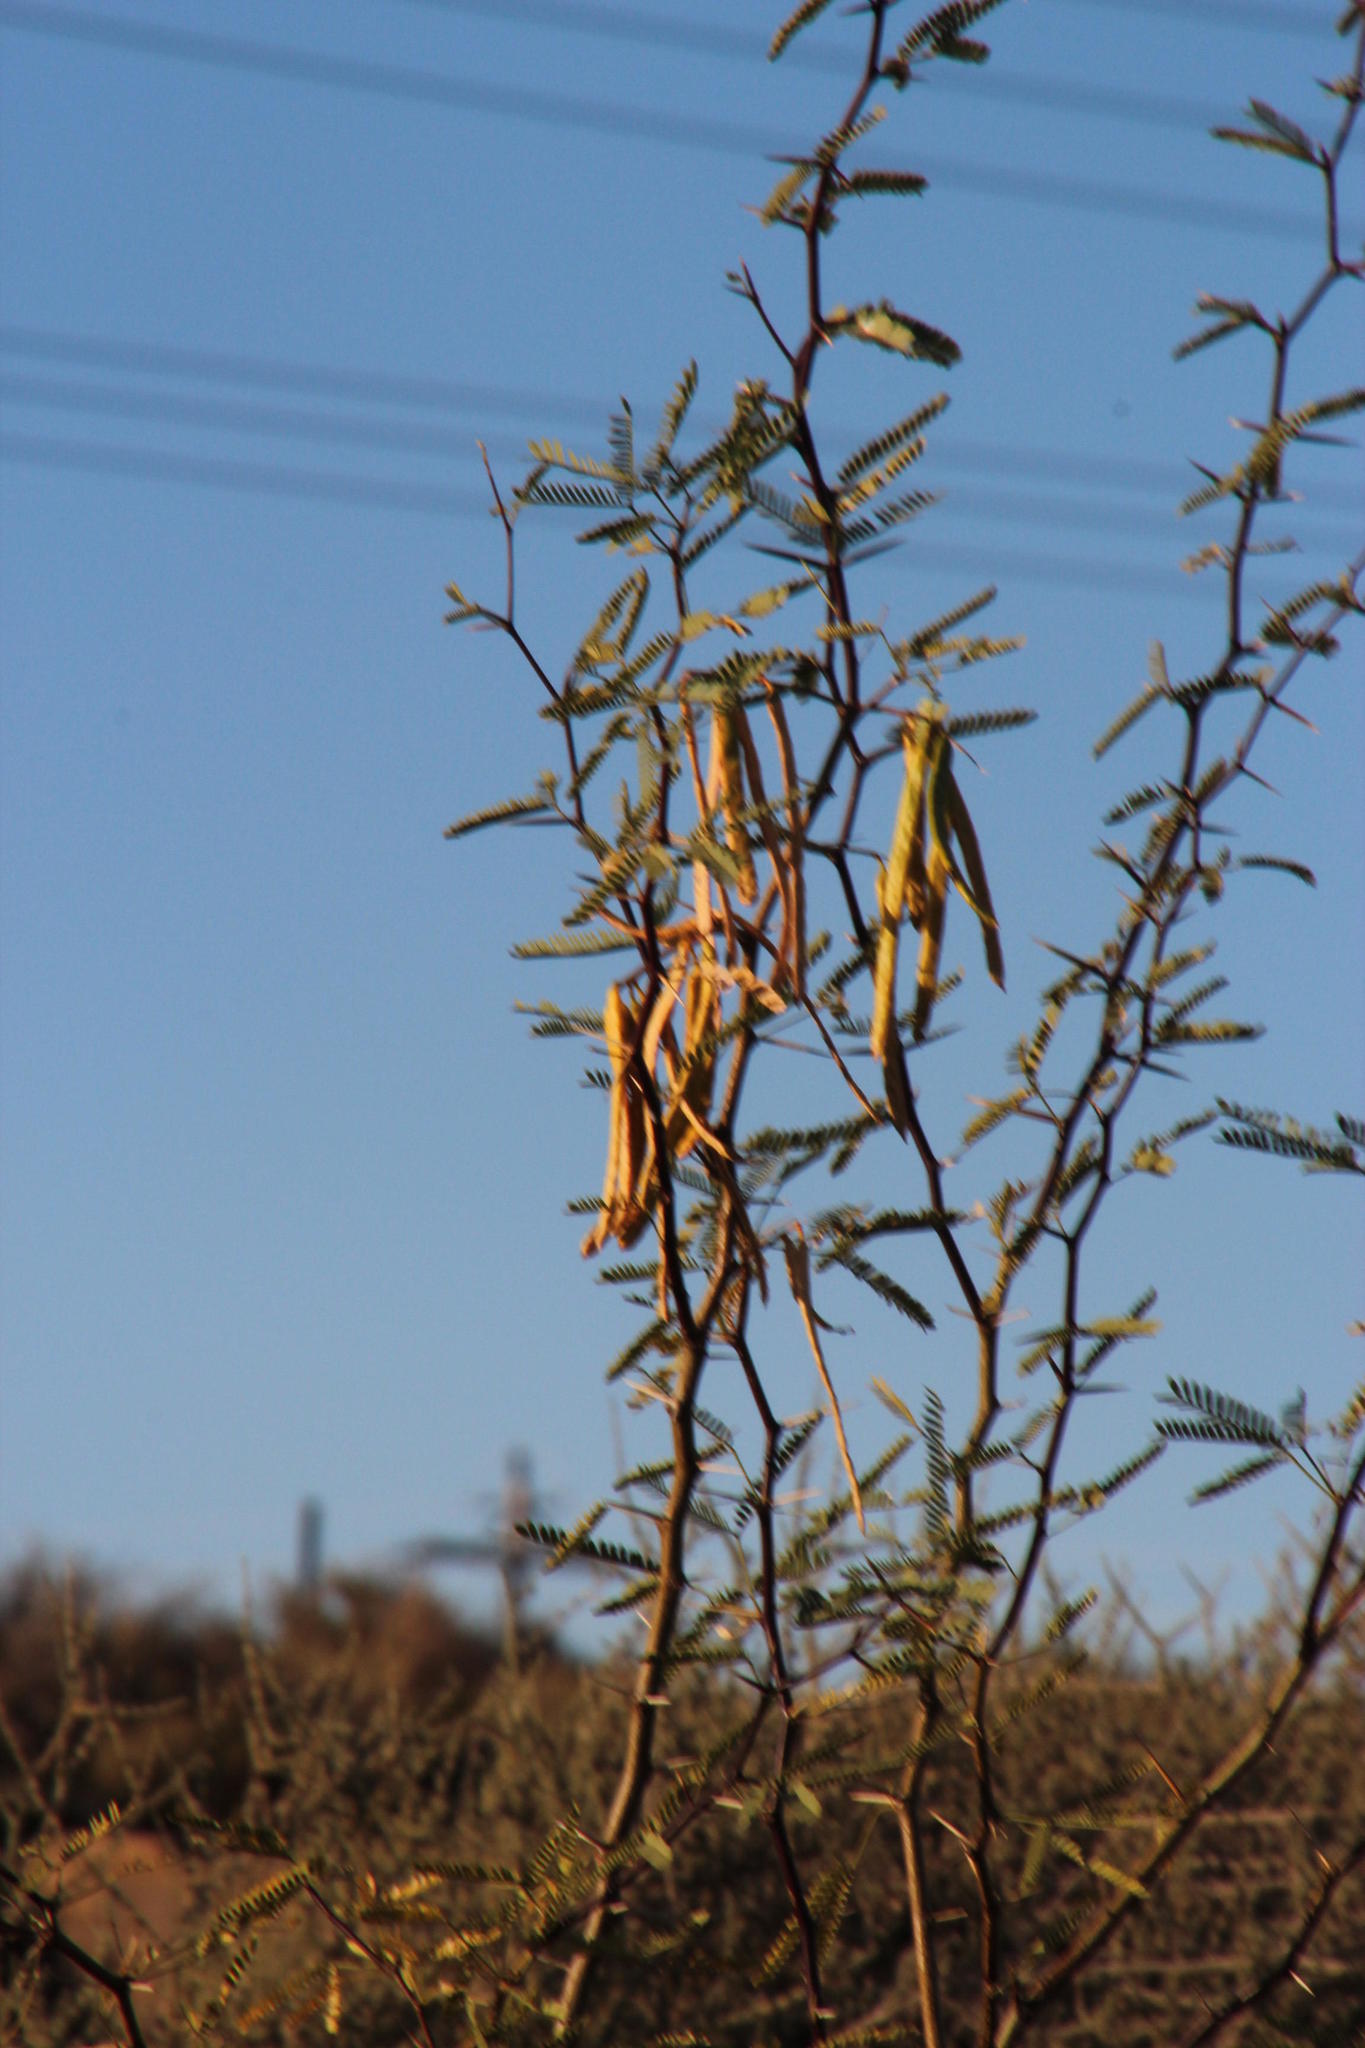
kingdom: Plantae
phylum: Tracheophyta
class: Magnoliopsida
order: Fabales
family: Fabaceae
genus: Prosopis
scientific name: Prosopis velutina
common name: Velvet mesquite
